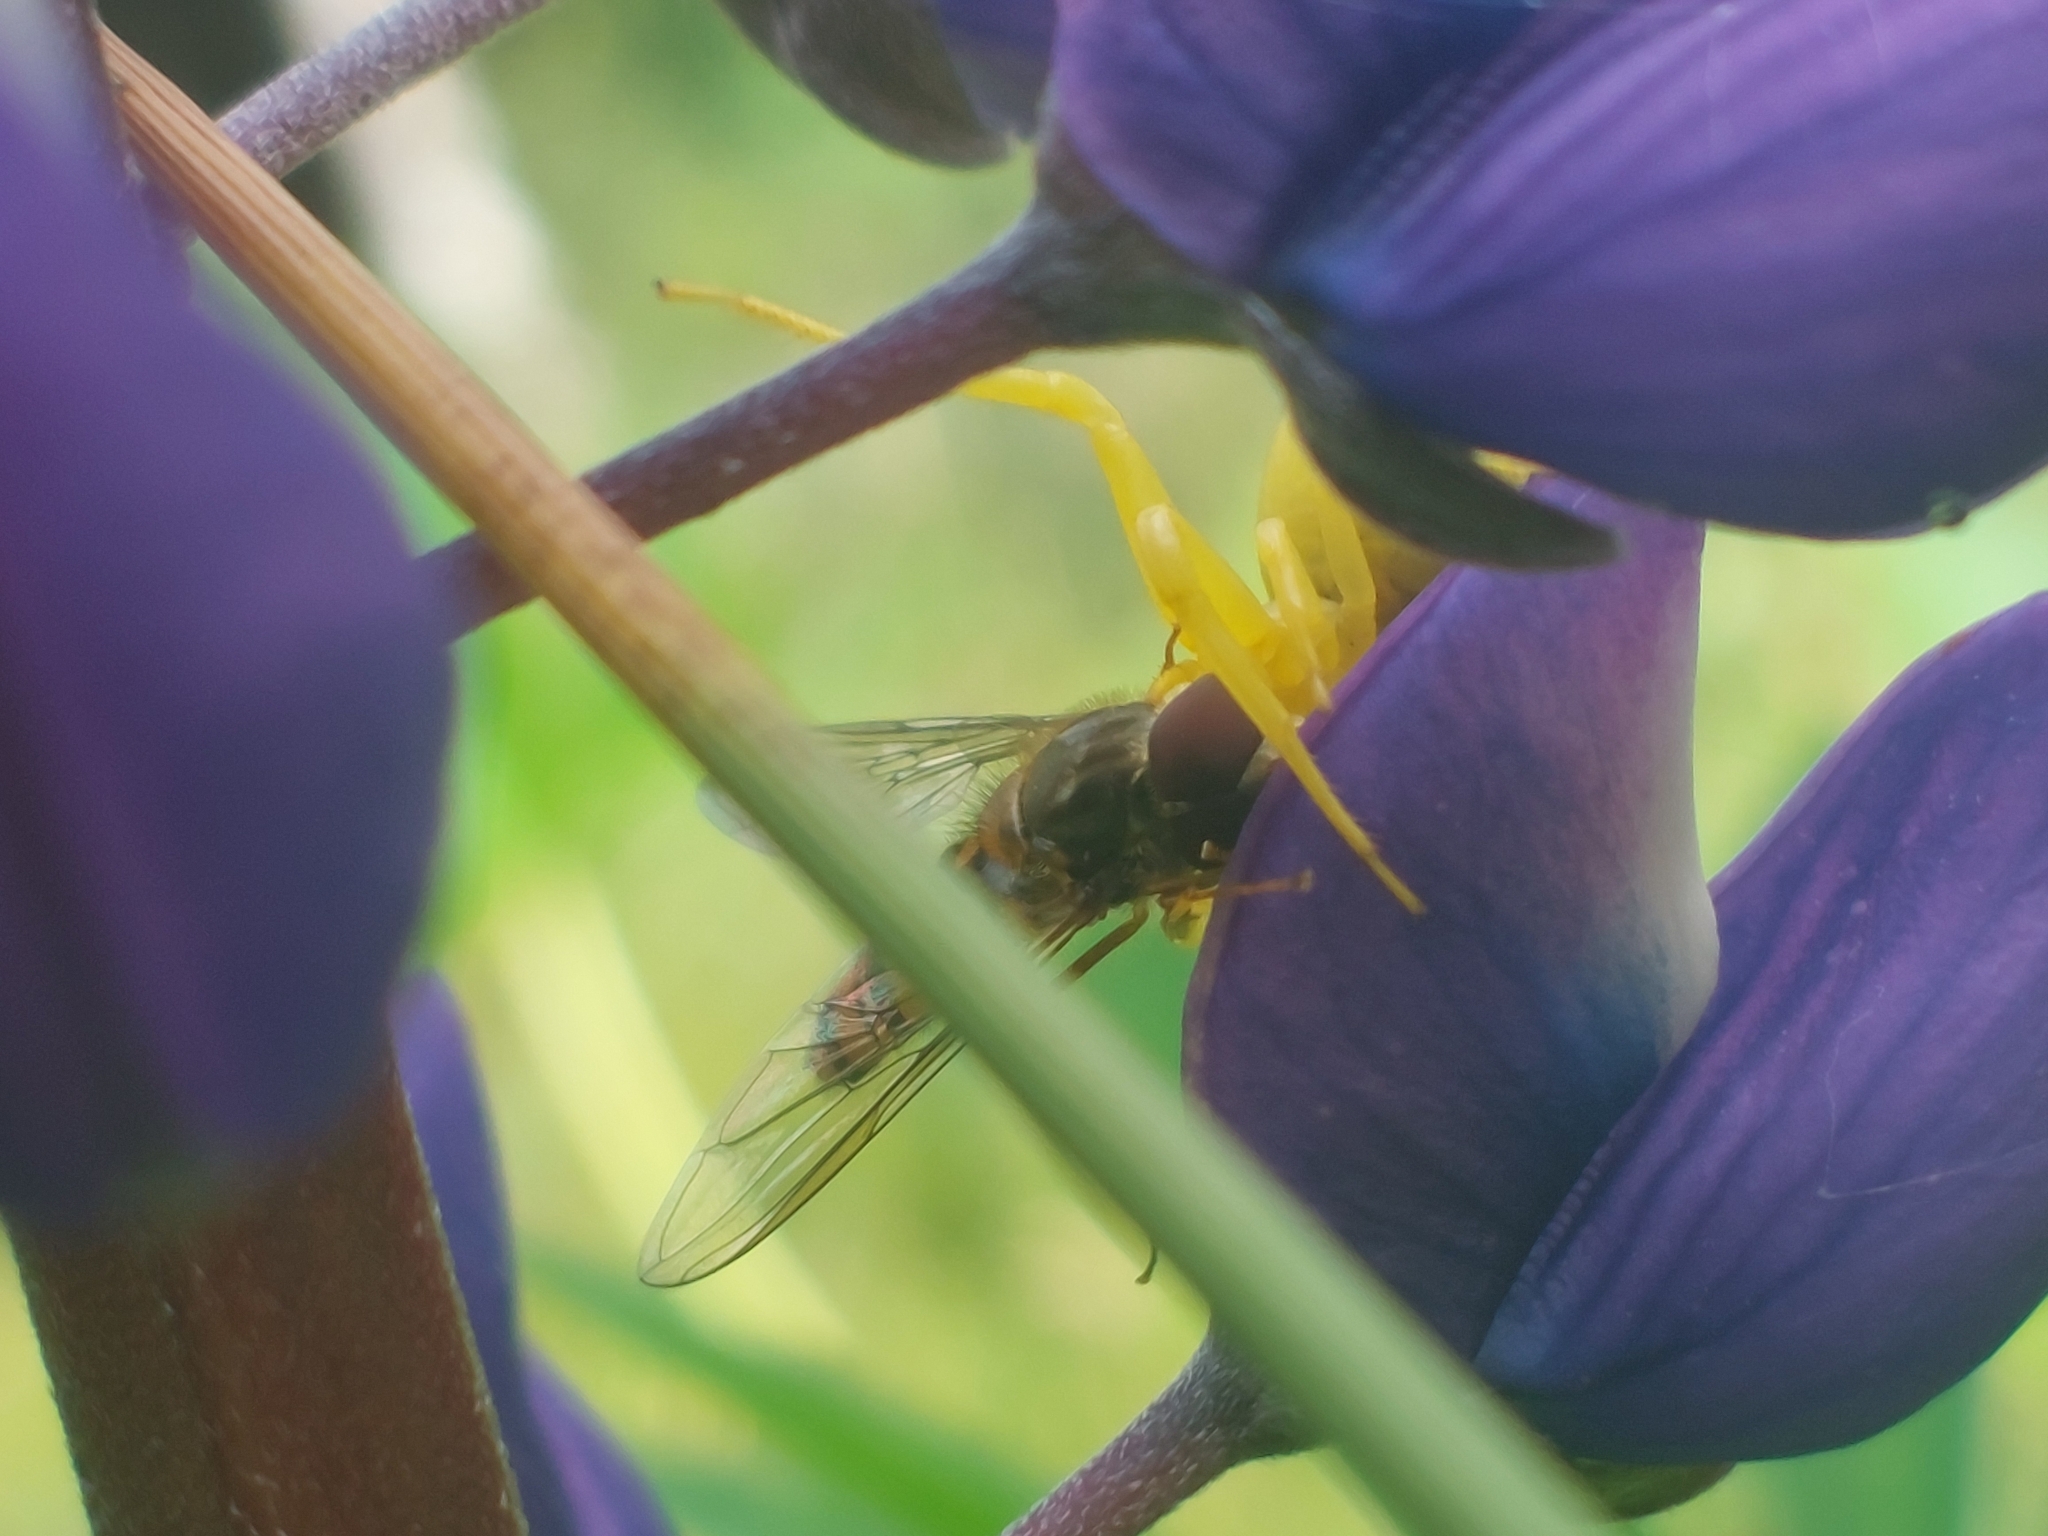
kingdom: Animalia
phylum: Arthropoda
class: Insecta
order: Diptera
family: Syrphidae
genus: Episyrphus
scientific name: Episyrphus balteatus
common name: Marmalade hoverfly
